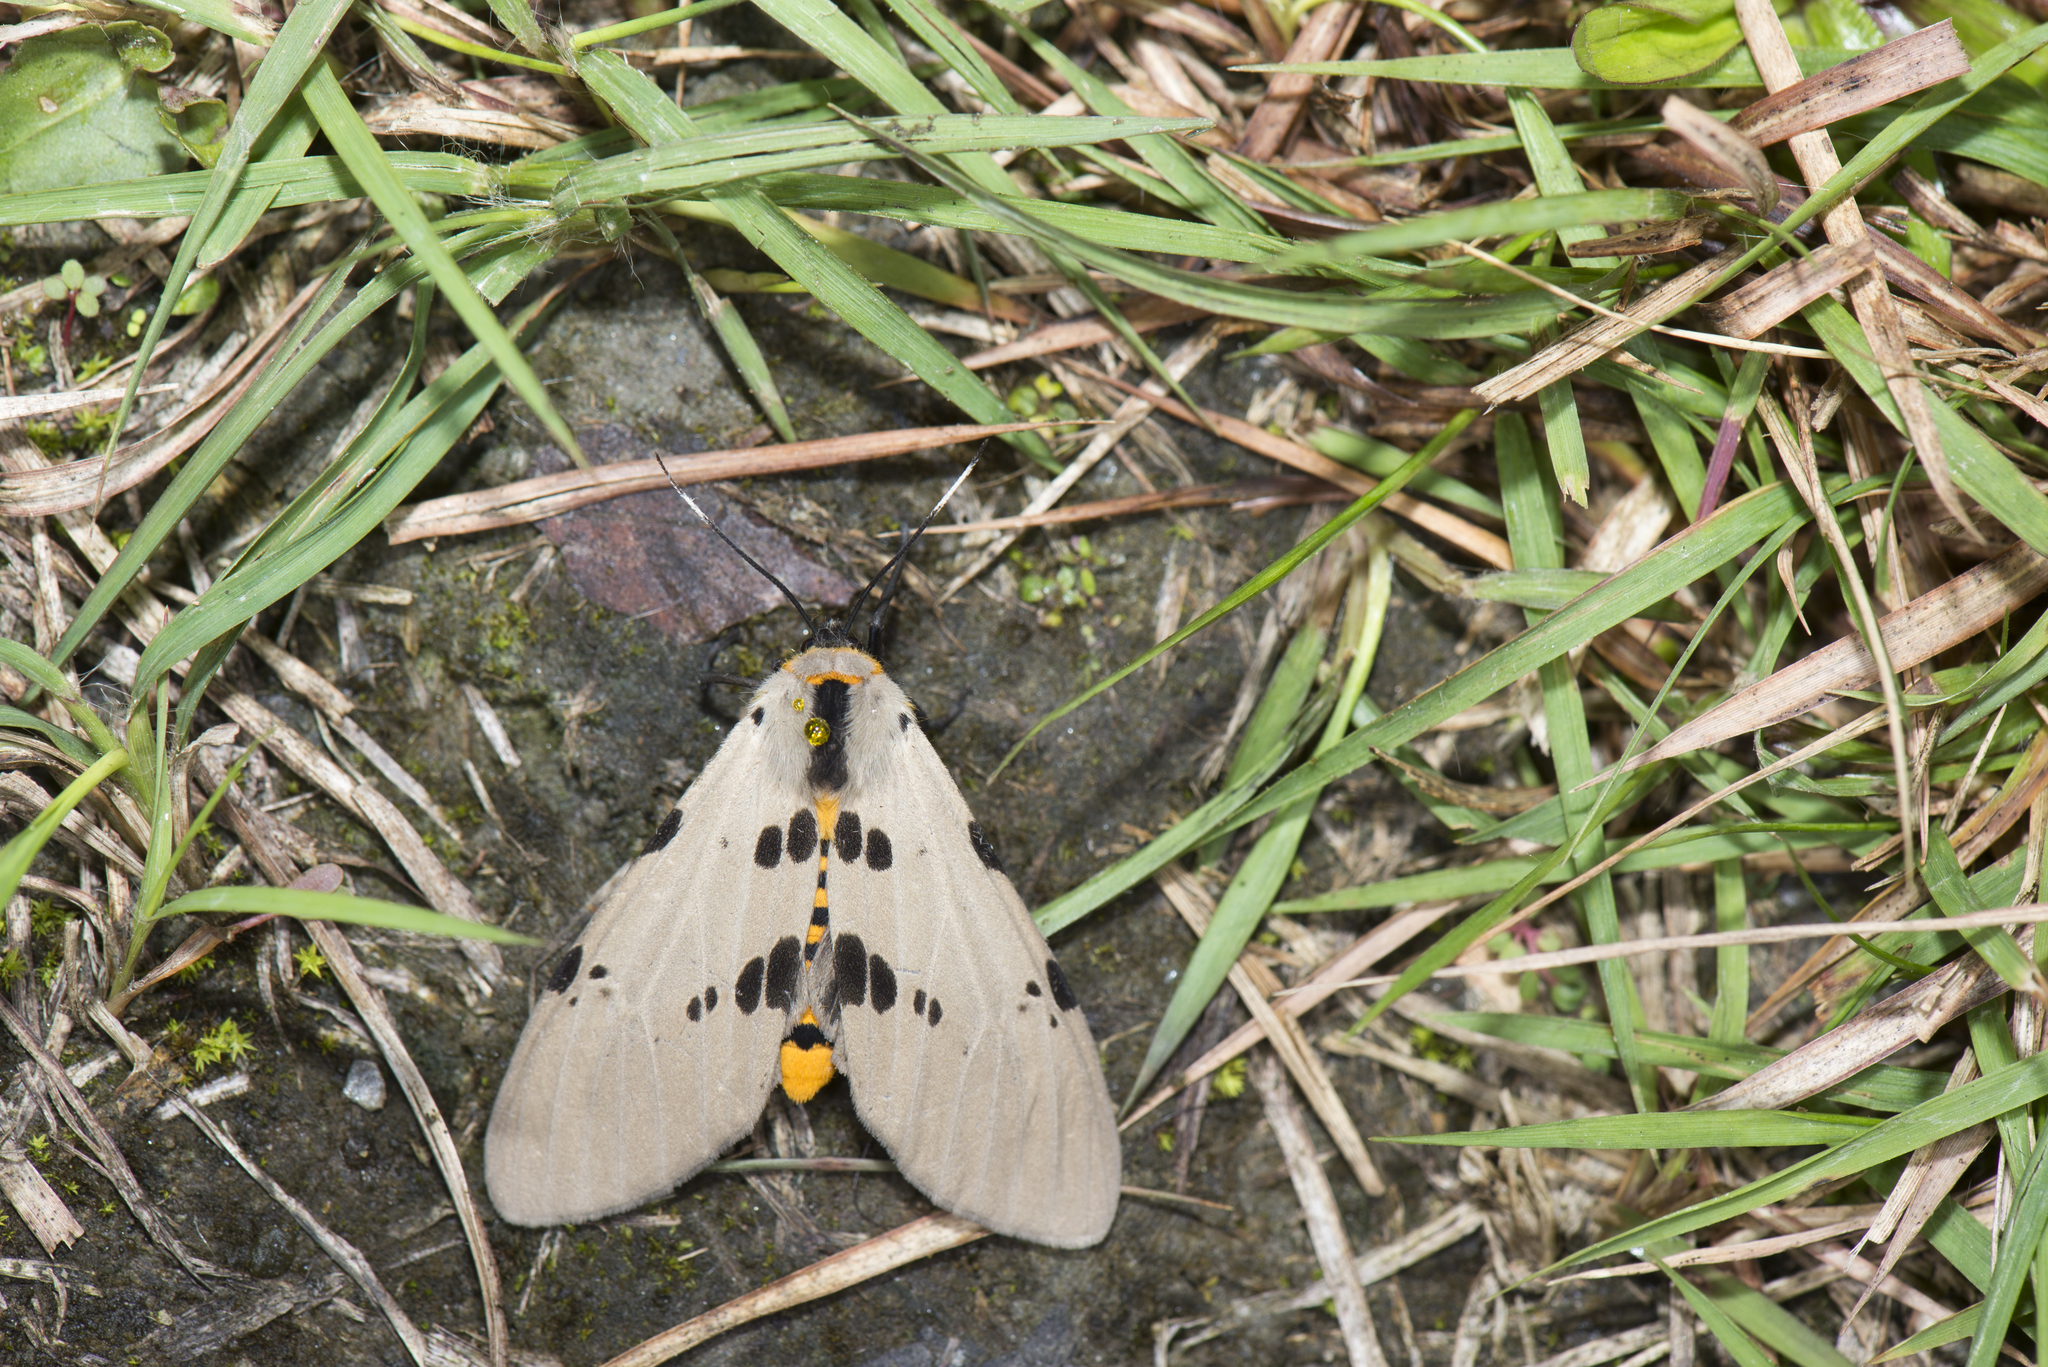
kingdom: Animalia
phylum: Arthropoda
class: Insecta
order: Lepidoptera
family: Erebidae
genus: Amsactoides
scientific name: Amsactoides solitaria
